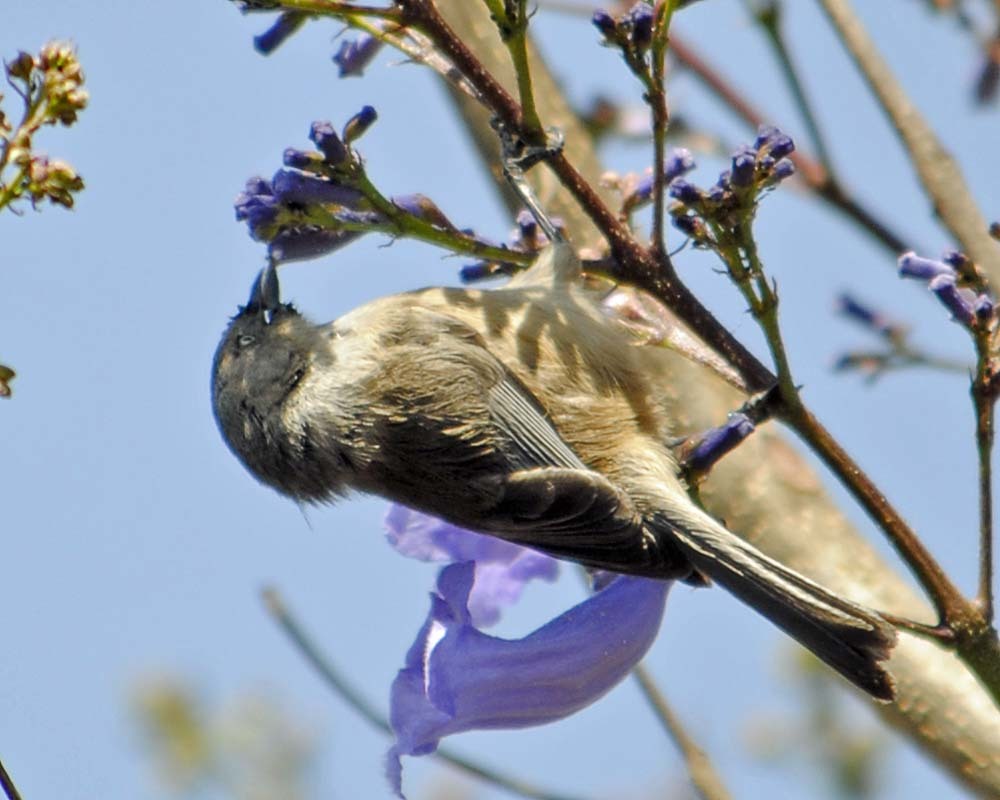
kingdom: Animalia
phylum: Chordata
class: Aves
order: Passeriformes
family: Aegithalidae
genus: Psaltriparus
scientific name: Psaltriparus minimus
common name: American bushtit
